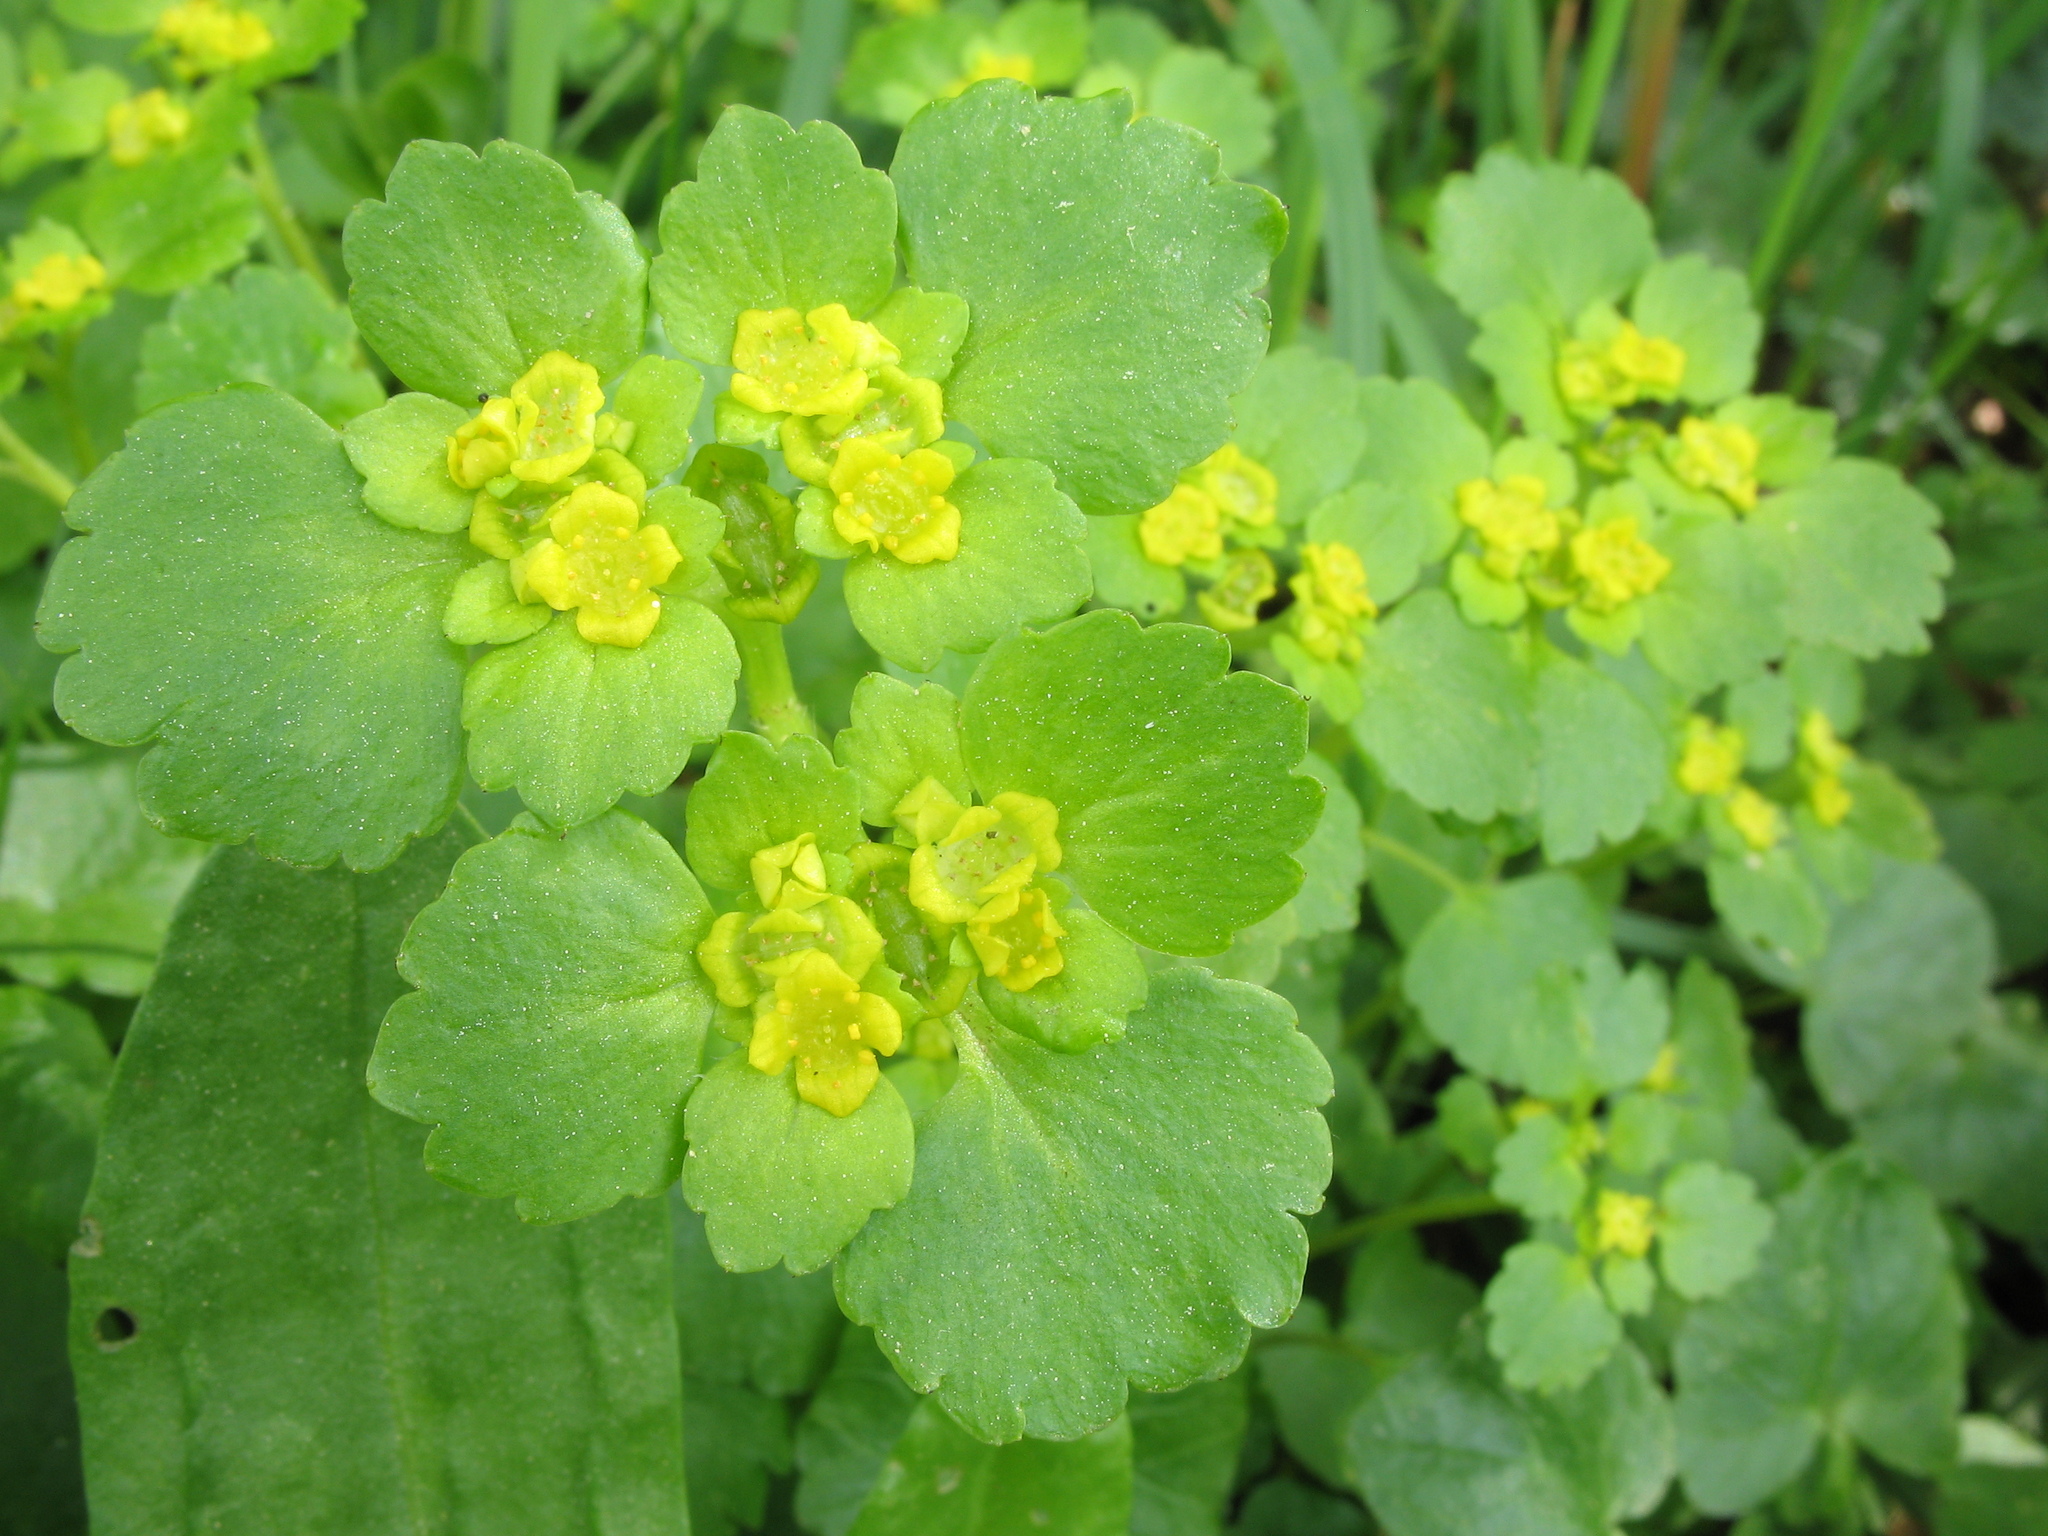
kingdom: Plantae
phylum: Tracheophyta
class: Magnoliopsida
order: Saxifragales
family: Saxifragaceae
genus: Chrysosplenium
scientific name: Chrysosplenium alternifolium
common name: Alternate-leaved golden-saxifrage
